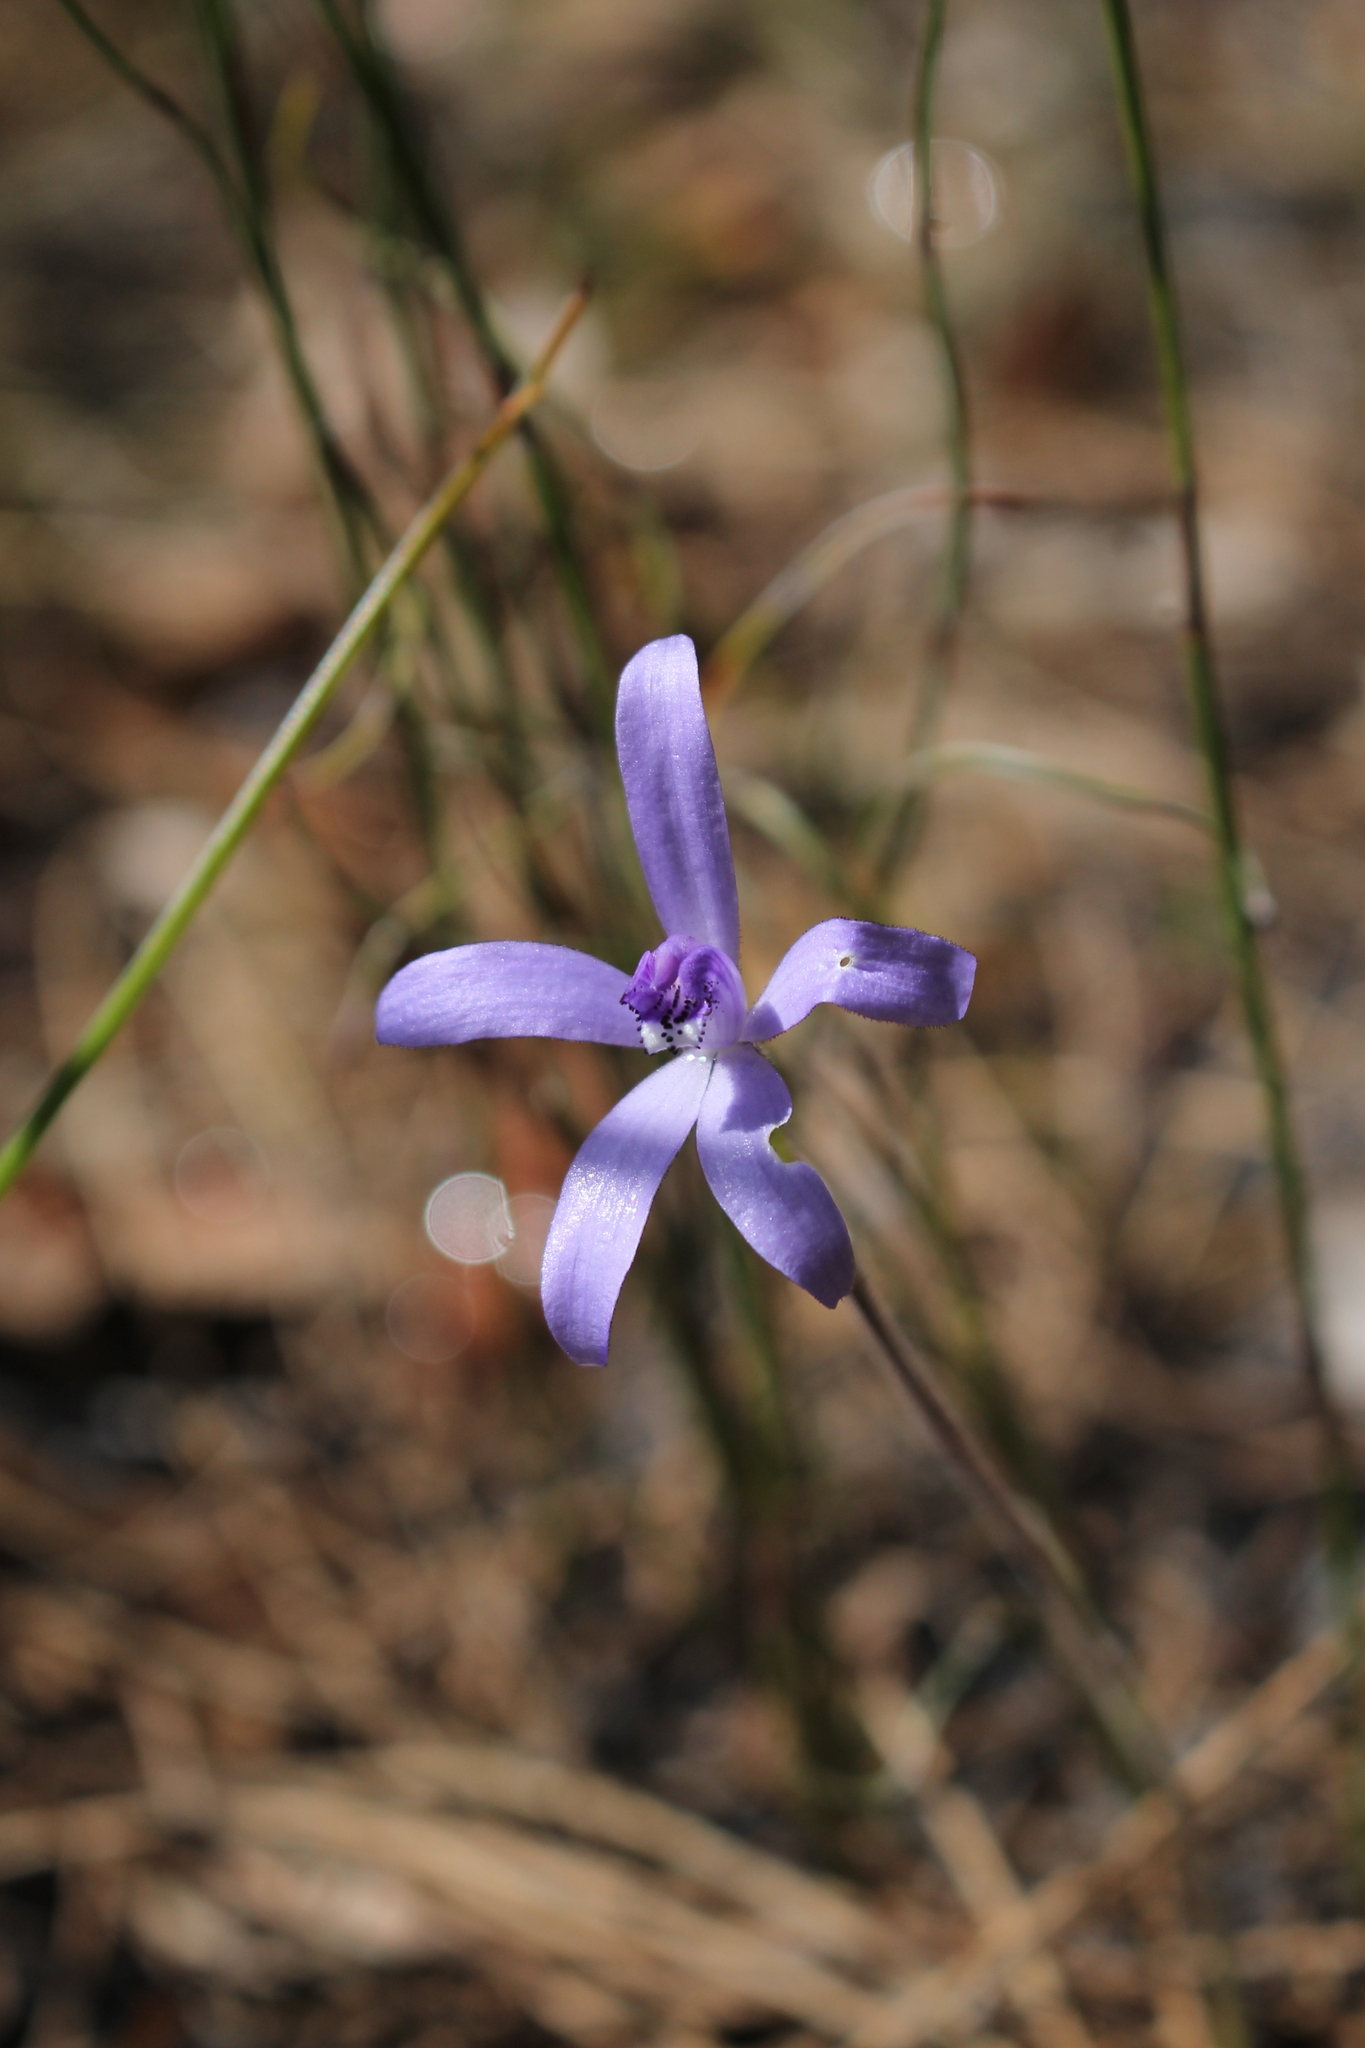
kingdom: Plantae
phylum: Tracheophyta
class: Liliopsida
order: Asparagales
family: Orchidaceae
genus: Caladenia
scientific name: Caladenia sericea
